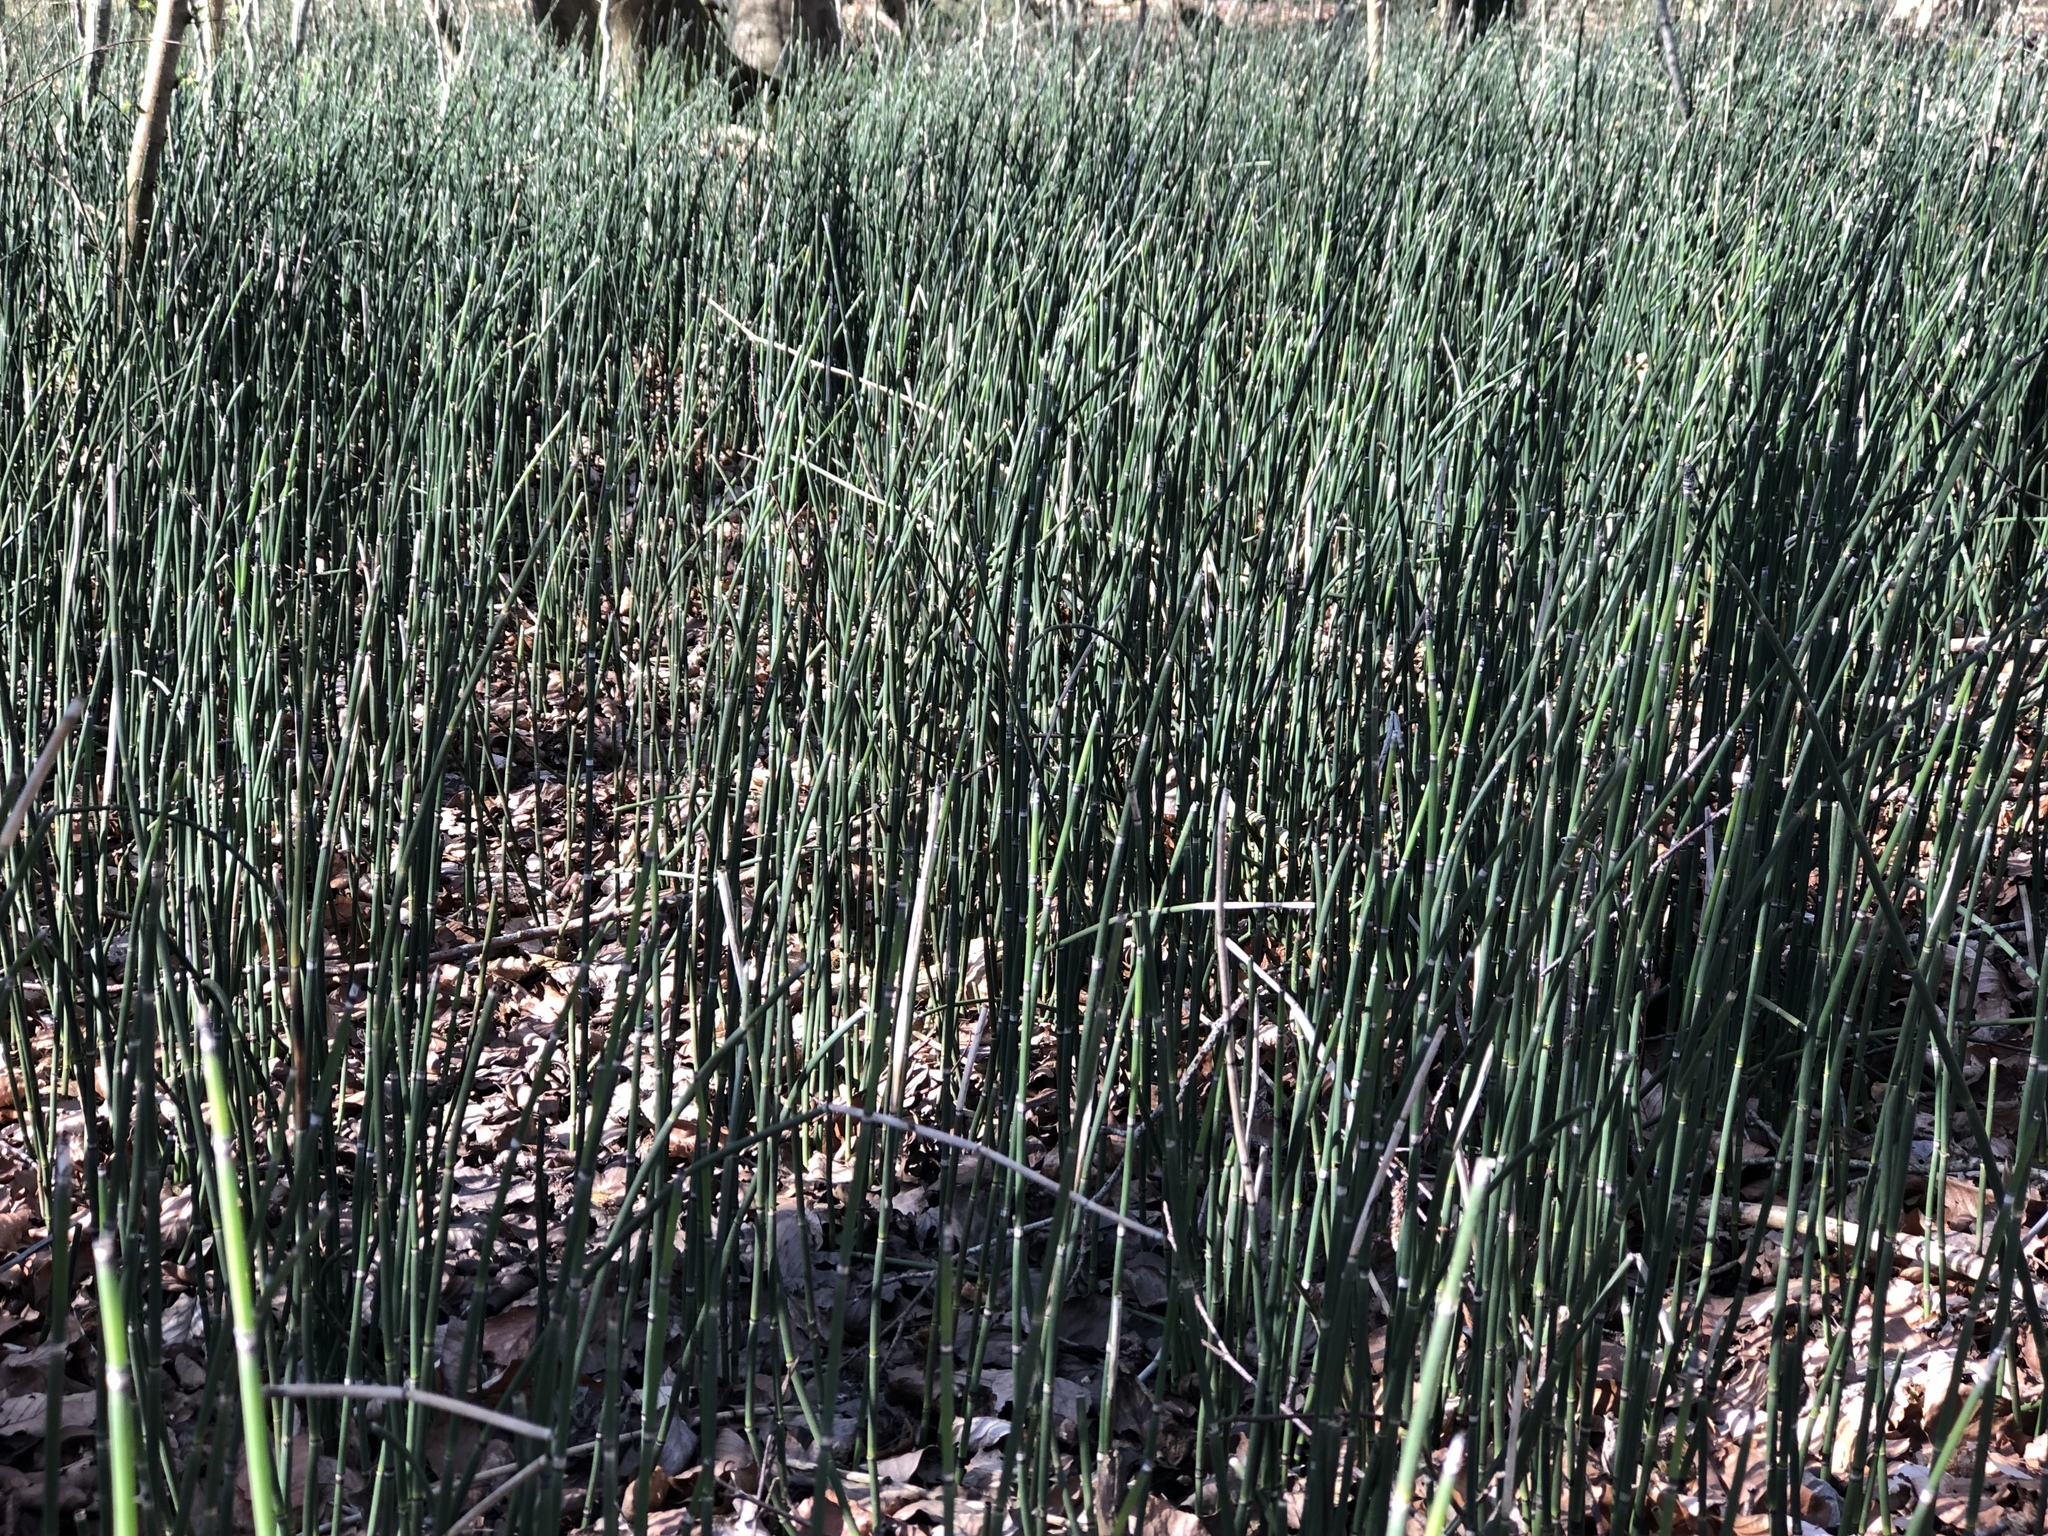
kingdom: Plantae
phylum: Tracheophyta
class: Polypodiopsida
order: Equisetales
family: Equisetaceae
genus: Equisetum
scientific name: Equisetum hyemale
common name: Rough horsetail
